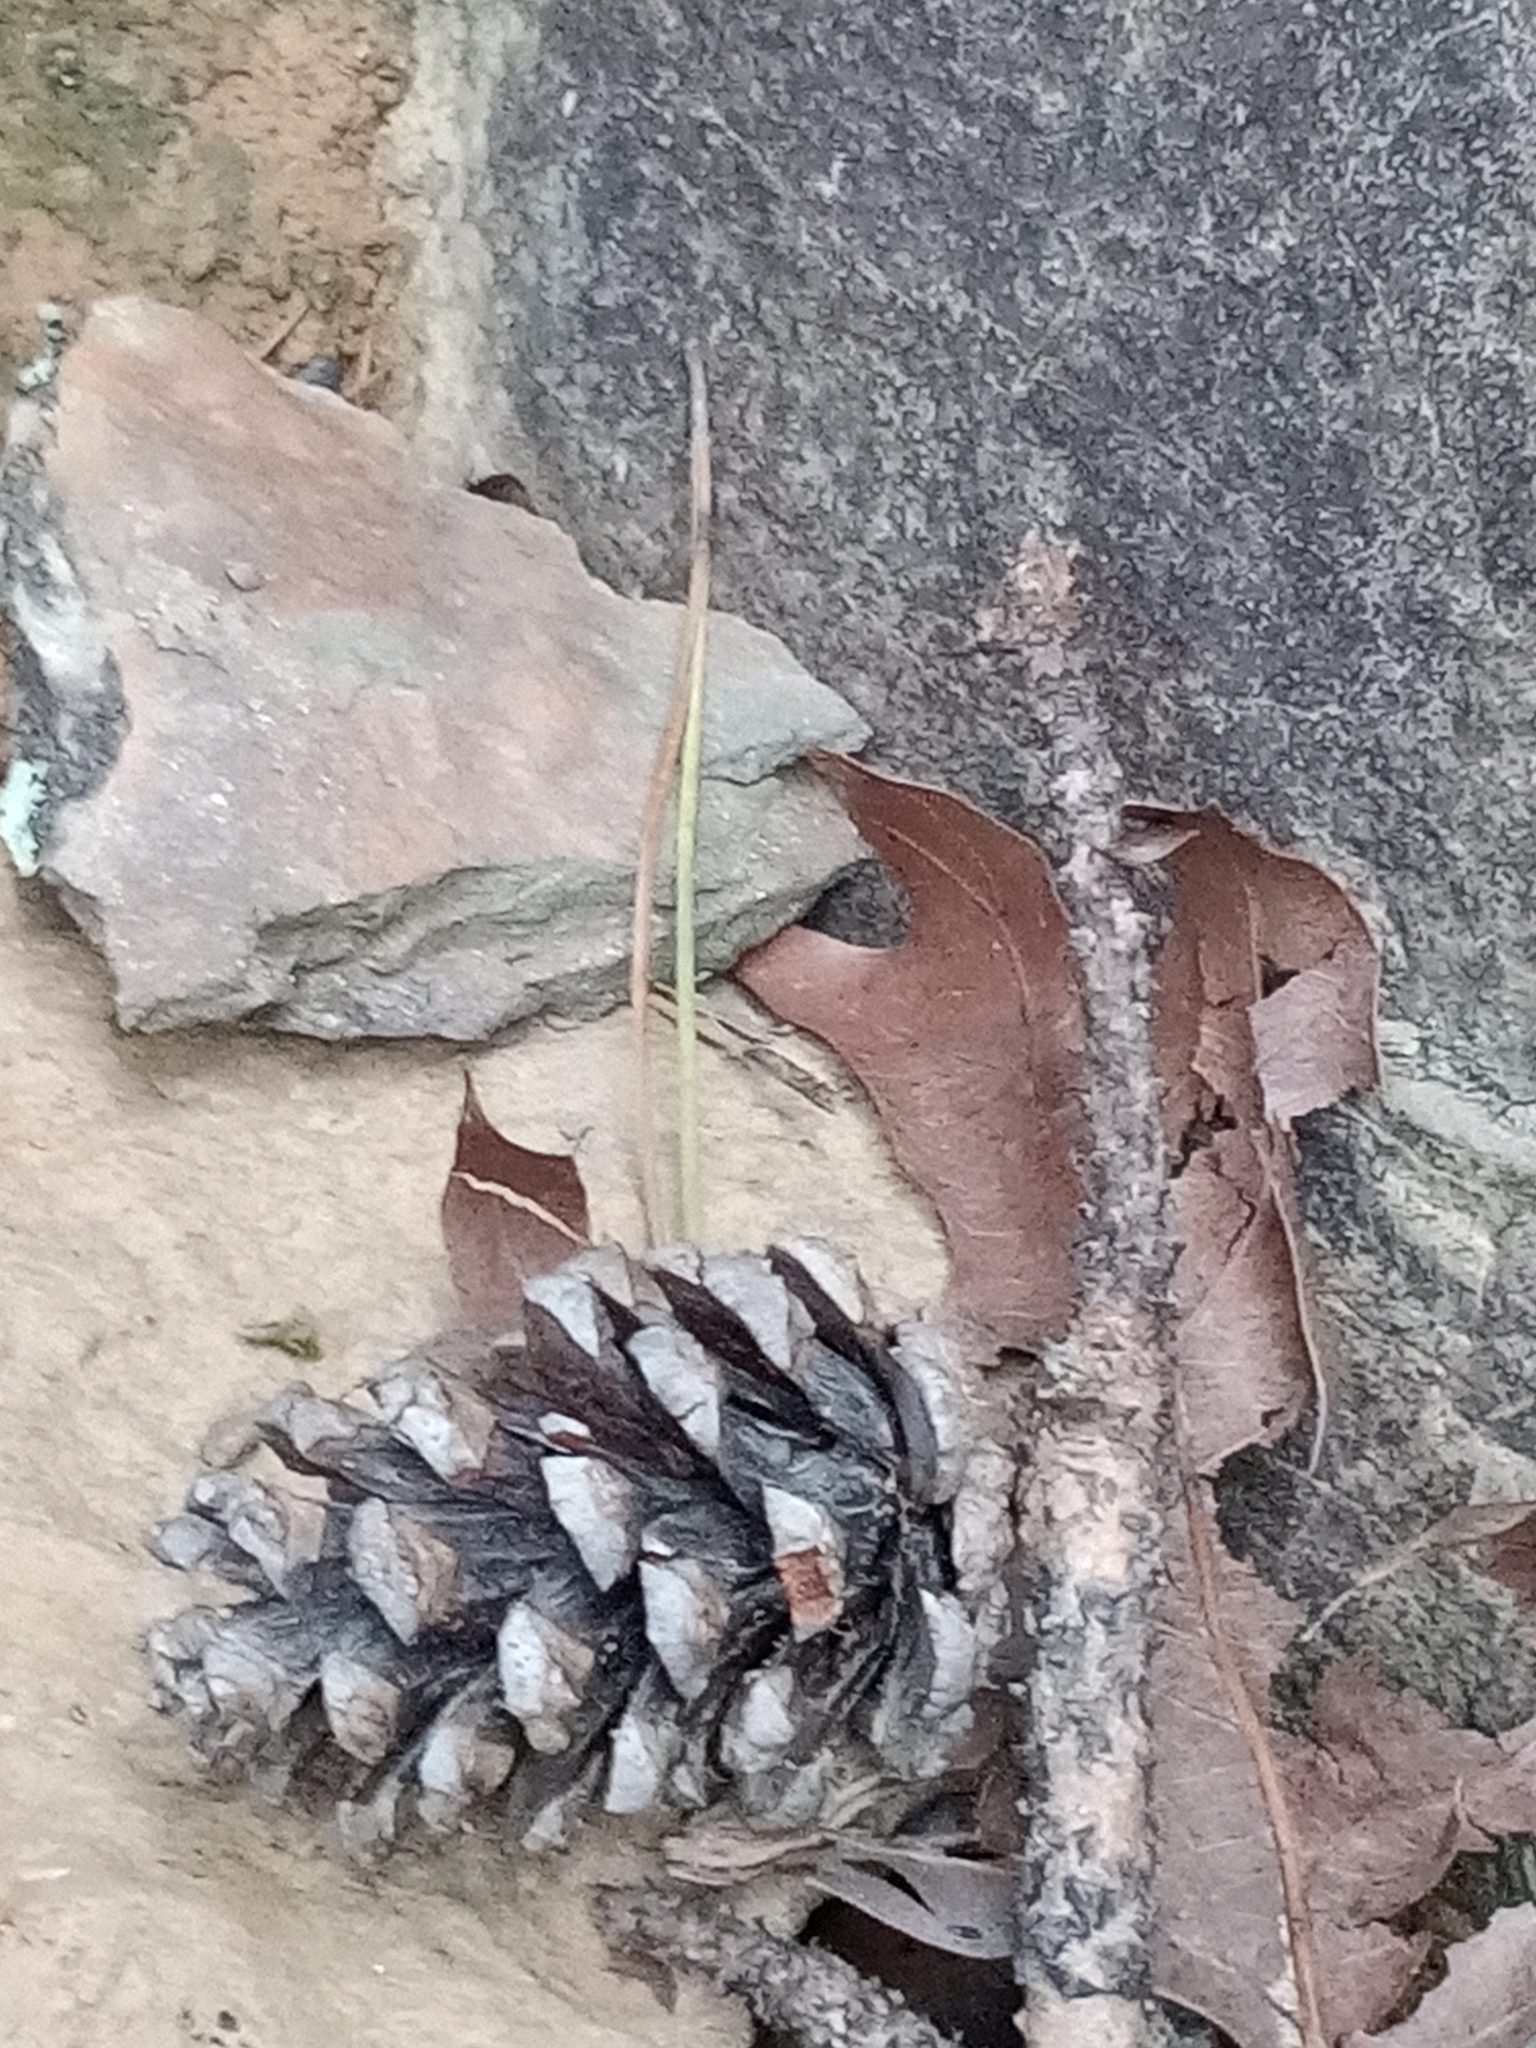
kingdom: Plantae
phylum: Tracheophyta
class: Pinopsida
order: Pinales
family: Pinaceae
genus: Pinus
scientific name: Pinus echinata
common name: Shortleaf pine
